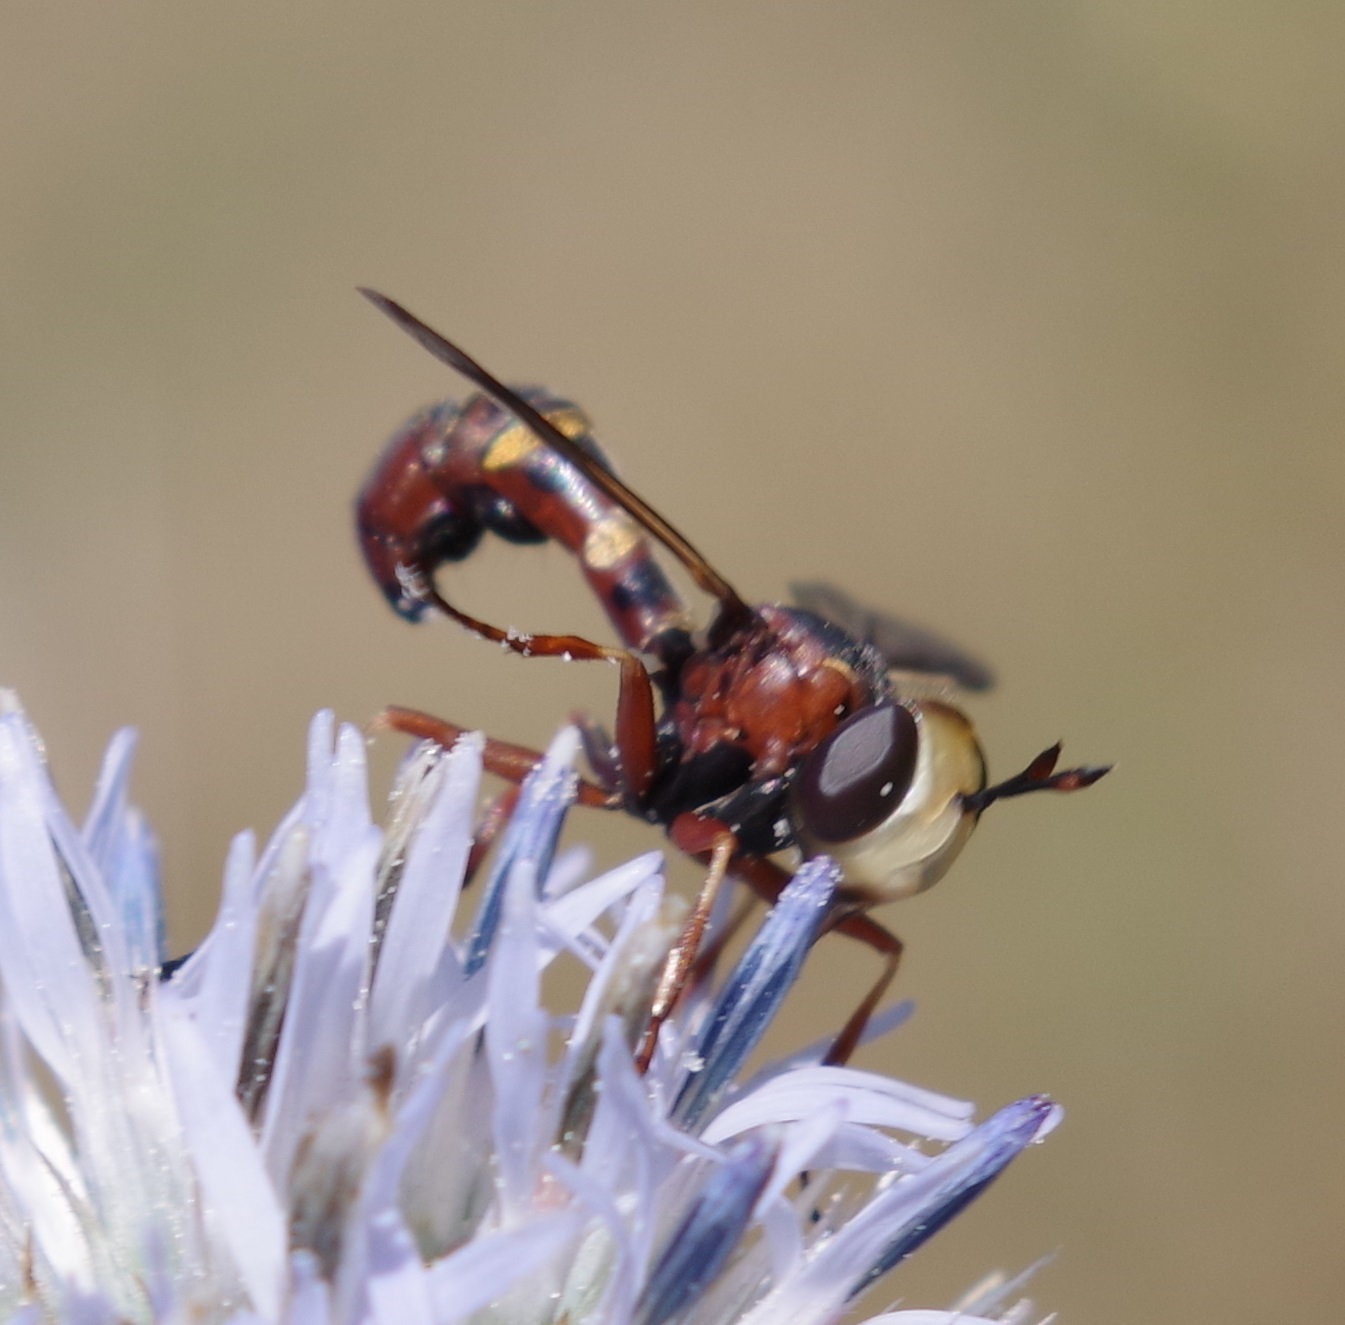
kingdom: Animalia
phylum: Arthropoda
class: Insecta
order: Diptera
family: Conopidae
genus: Physocephala
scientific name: Physocephala vittata
